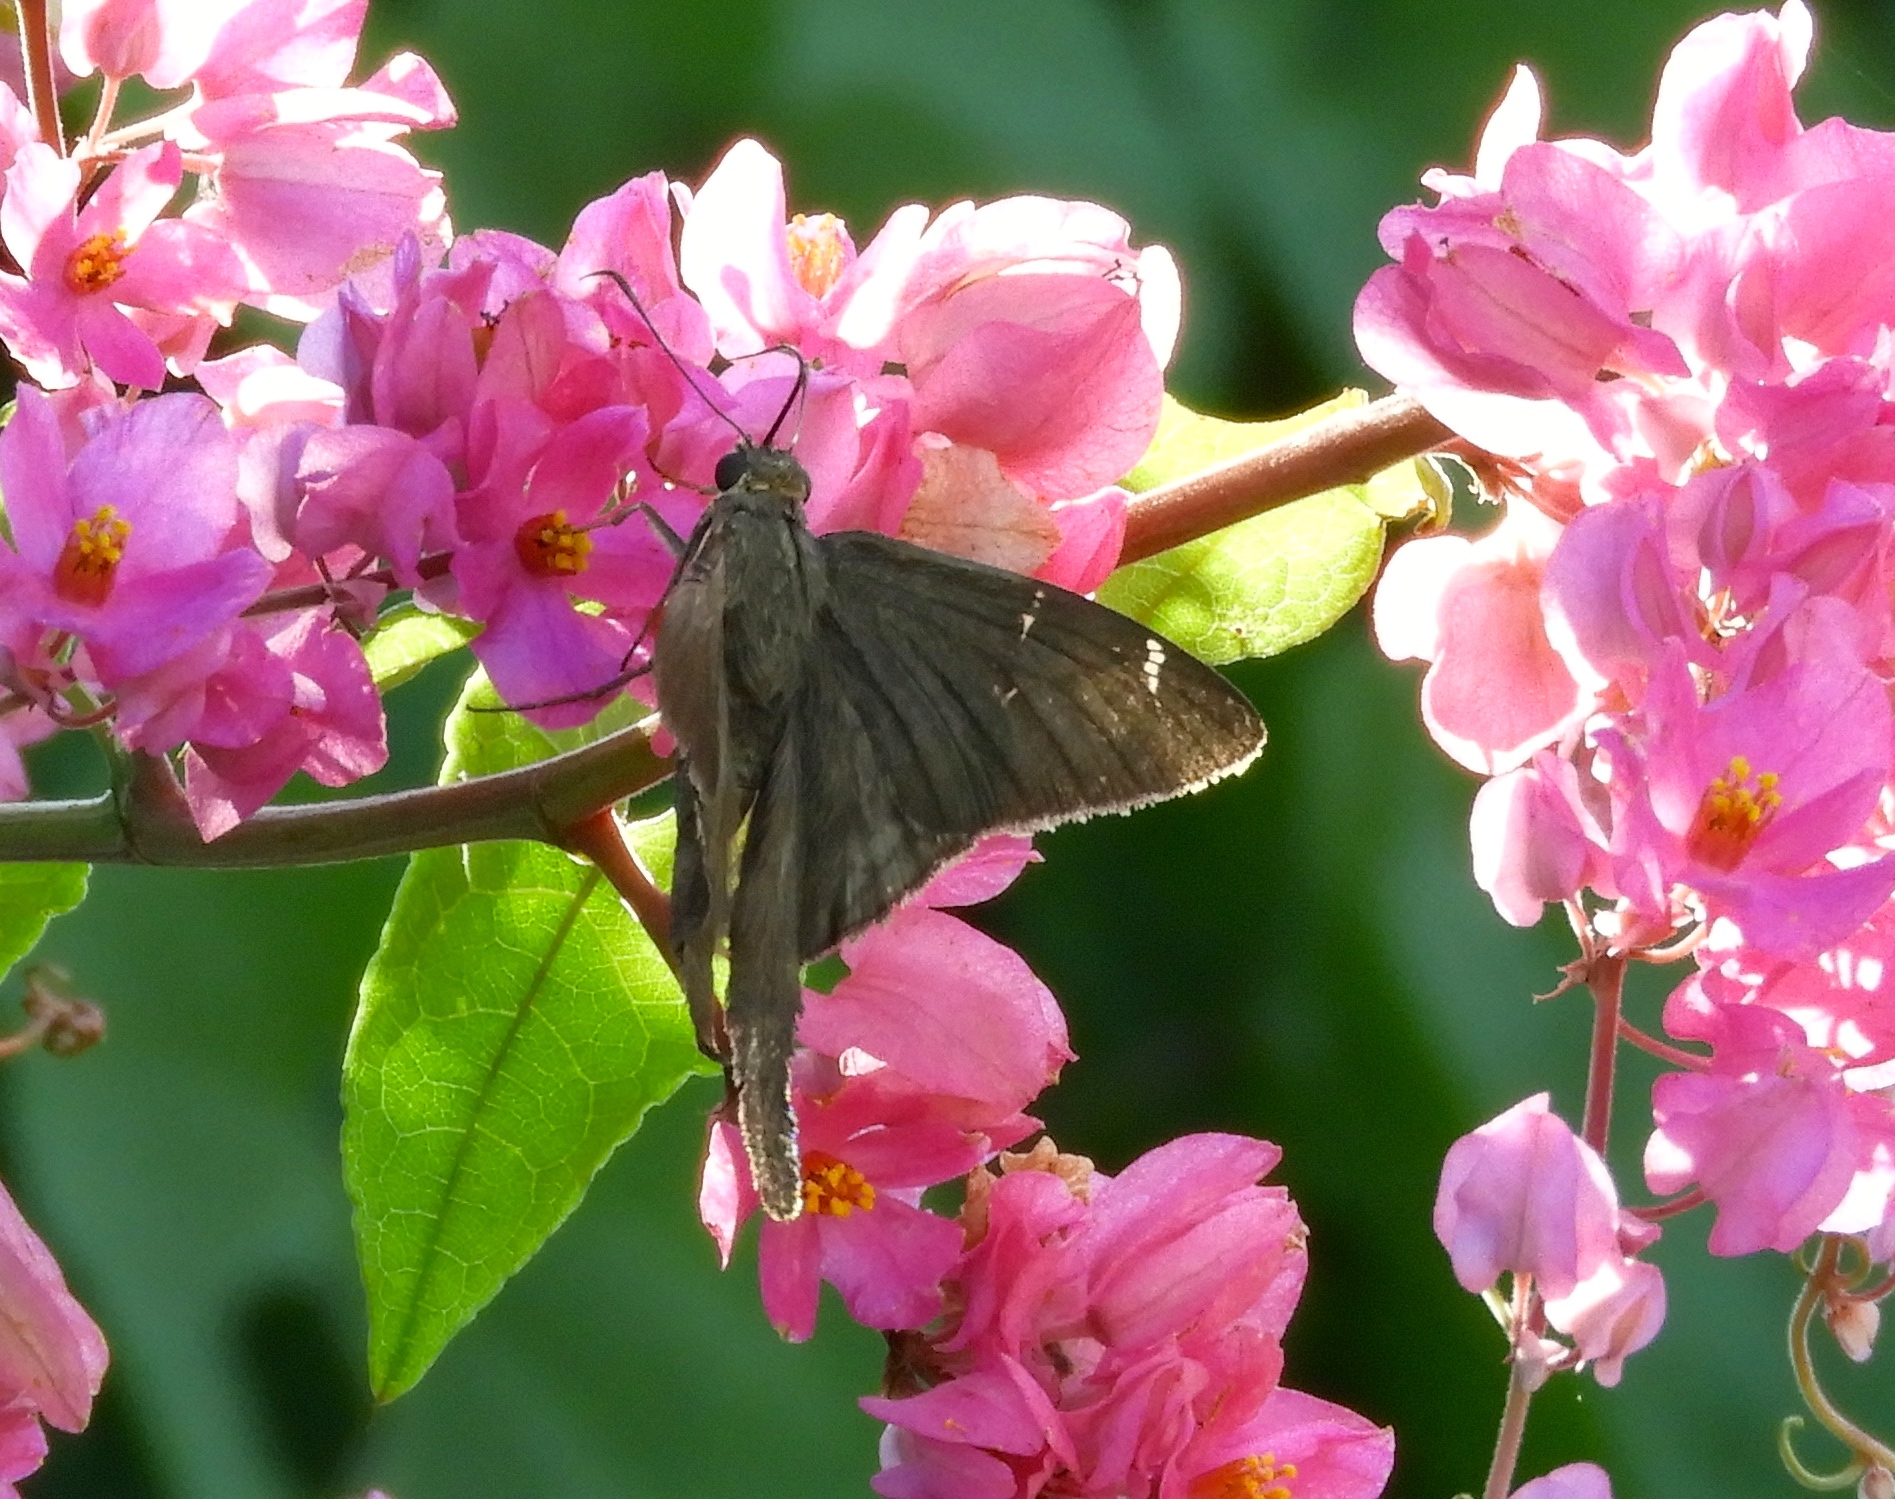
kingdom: Animalia
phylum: Arthropoda
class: Insecta
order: Lepidoptera
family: Hesperiidae
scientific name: Hesperiidae
